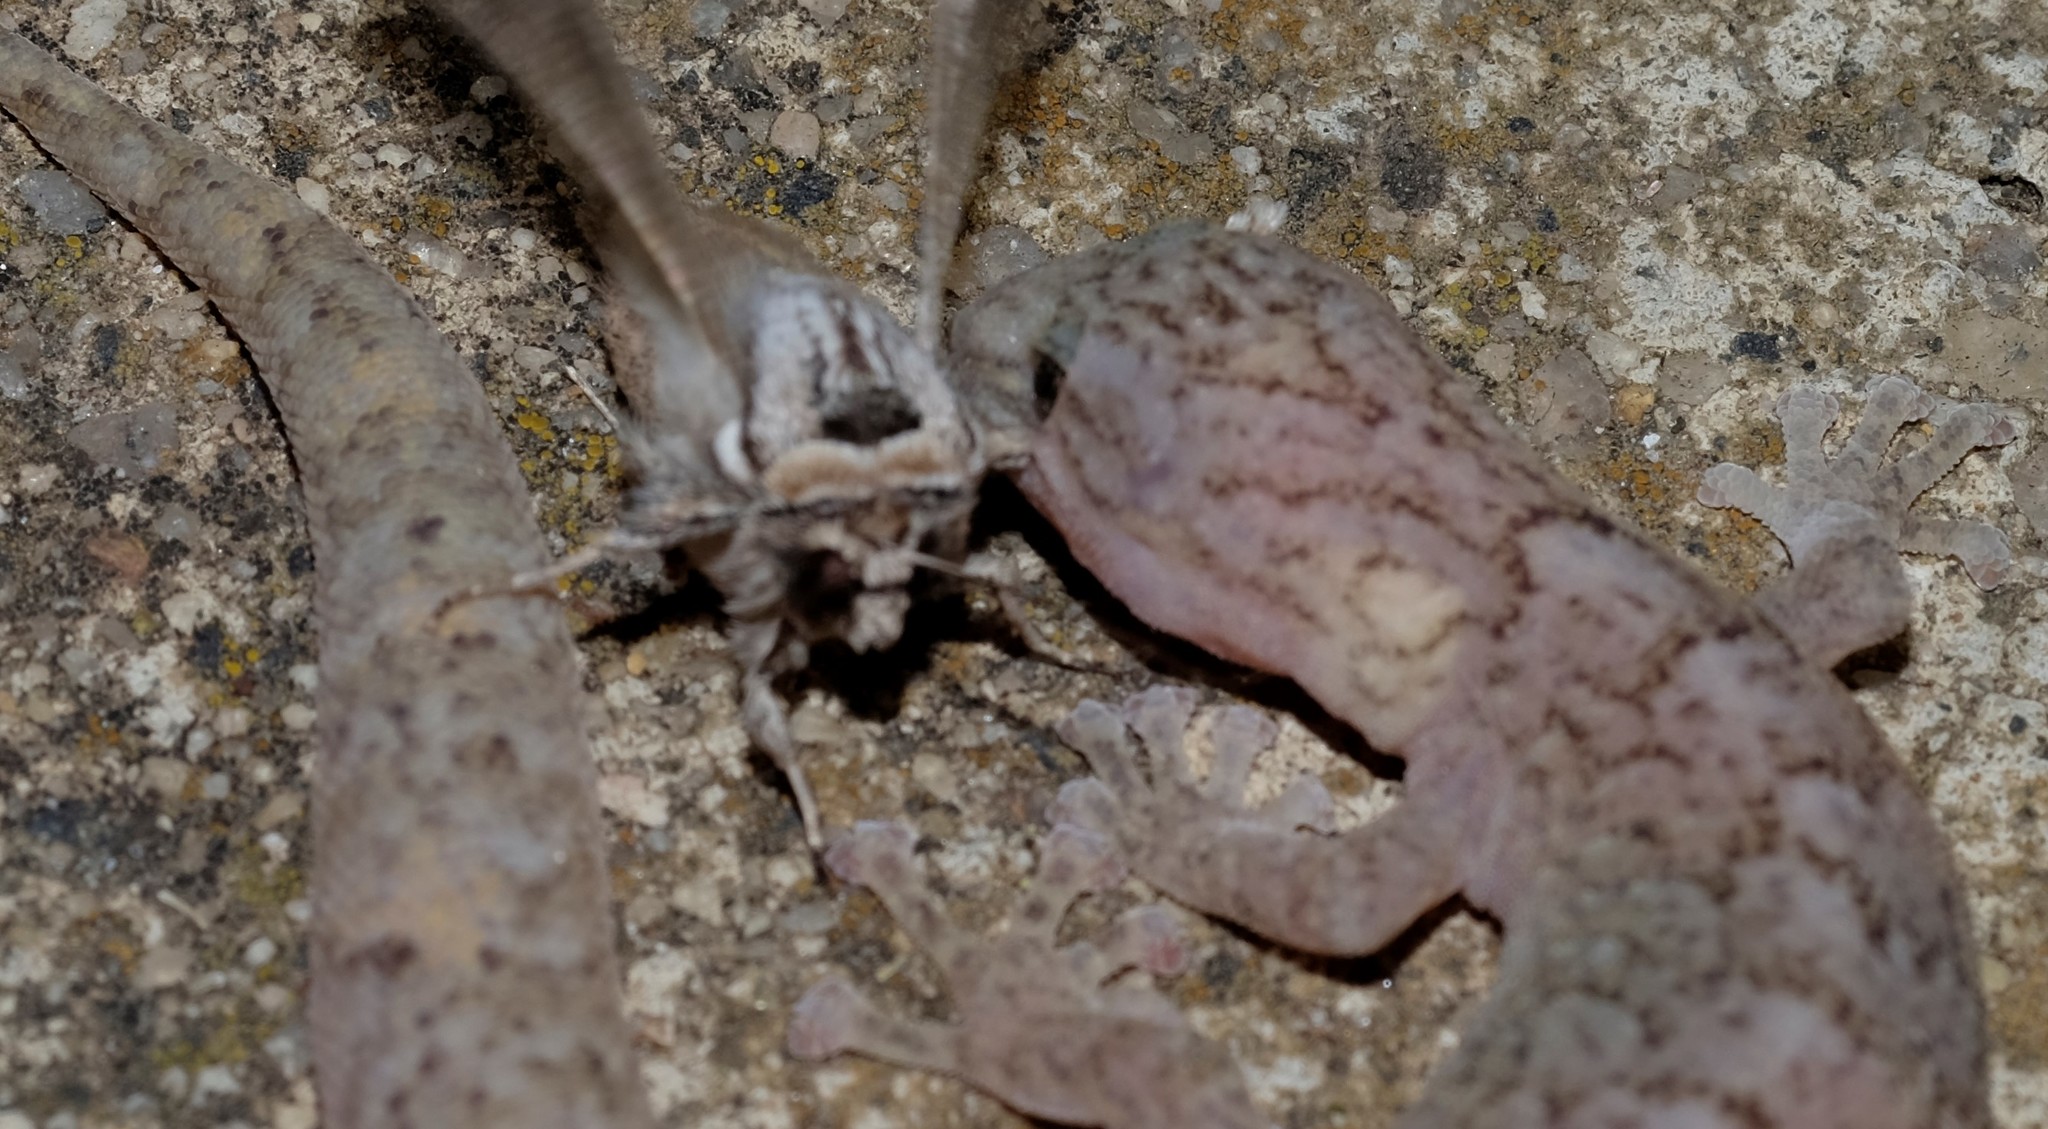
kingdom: Animalia
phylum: Chordata
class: Squamata
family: Gekkonidae
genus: Christinus
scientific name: Christinus marmoratus
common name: Marbled gecko
